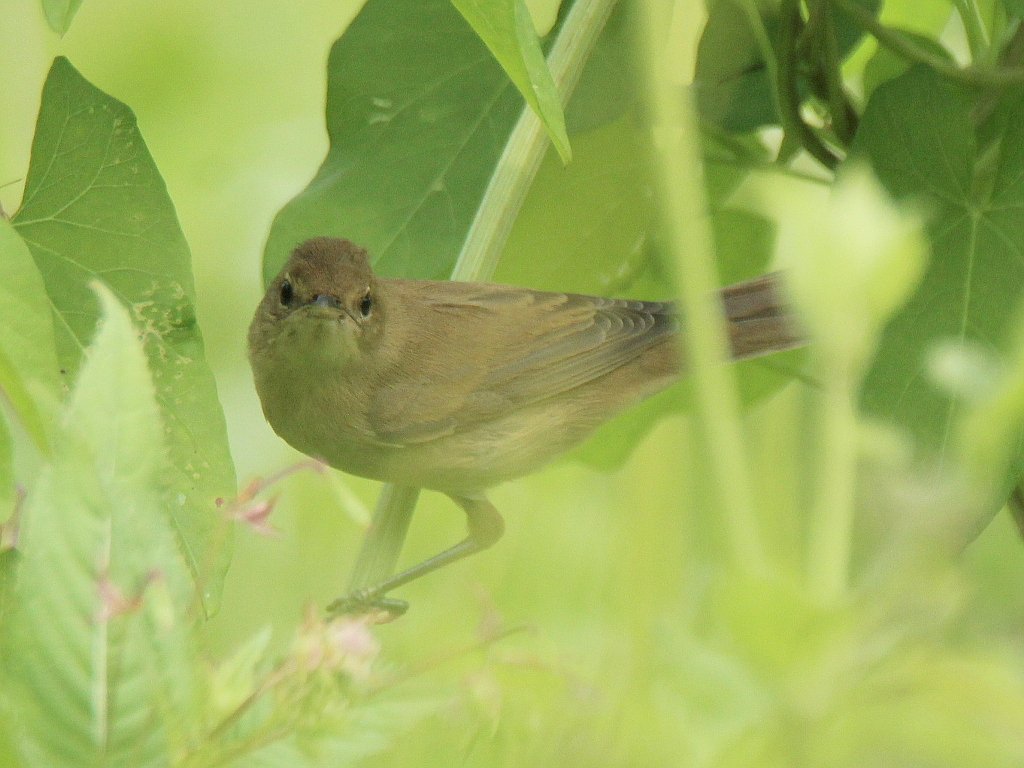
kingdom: Animalia
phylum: Chordata
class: Aves
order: Passeriformes
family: Acrocephalidae
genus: Acrocephalus
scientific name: Acrocephalus palustris
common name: Marsh warbler
